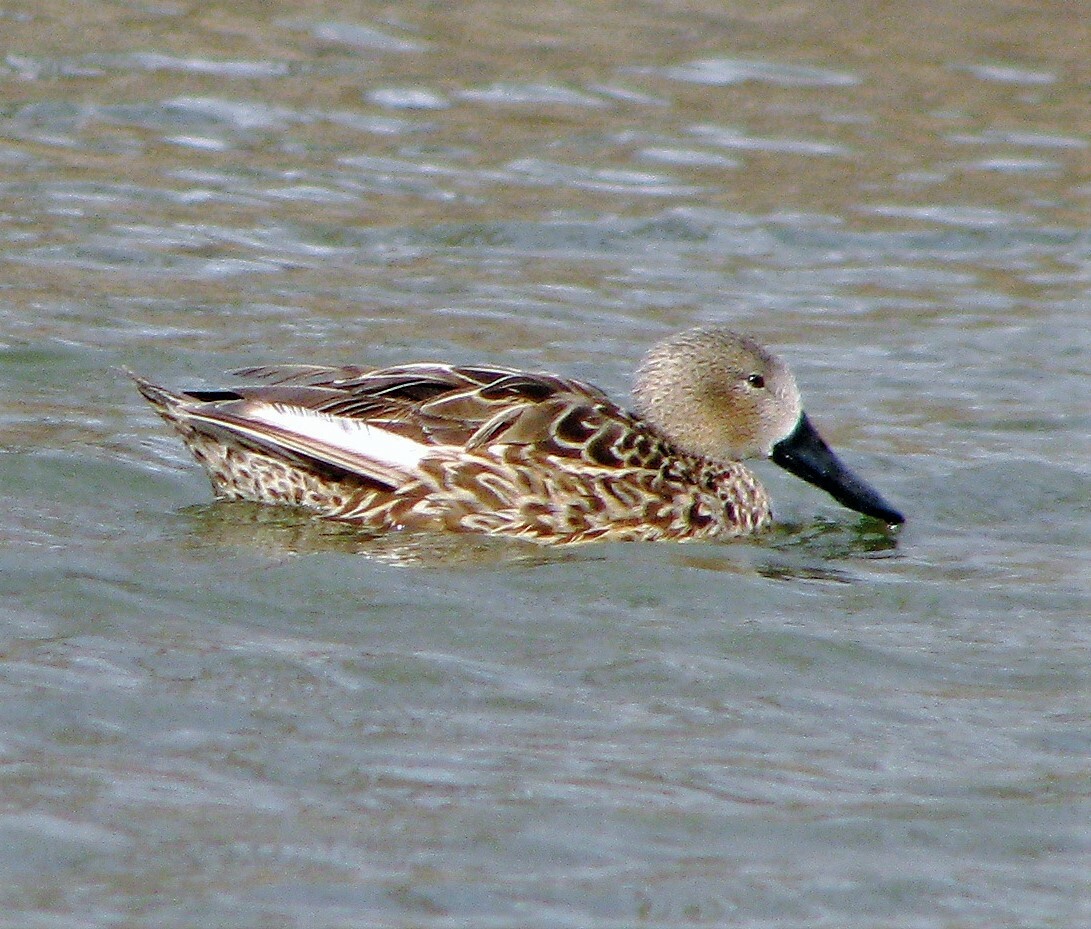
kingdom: Animalia
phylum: Chordata
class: Aves
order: Anseriformes
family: Anatidae
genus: Spatula
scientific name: Spatula platalea
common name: Red shoveler
